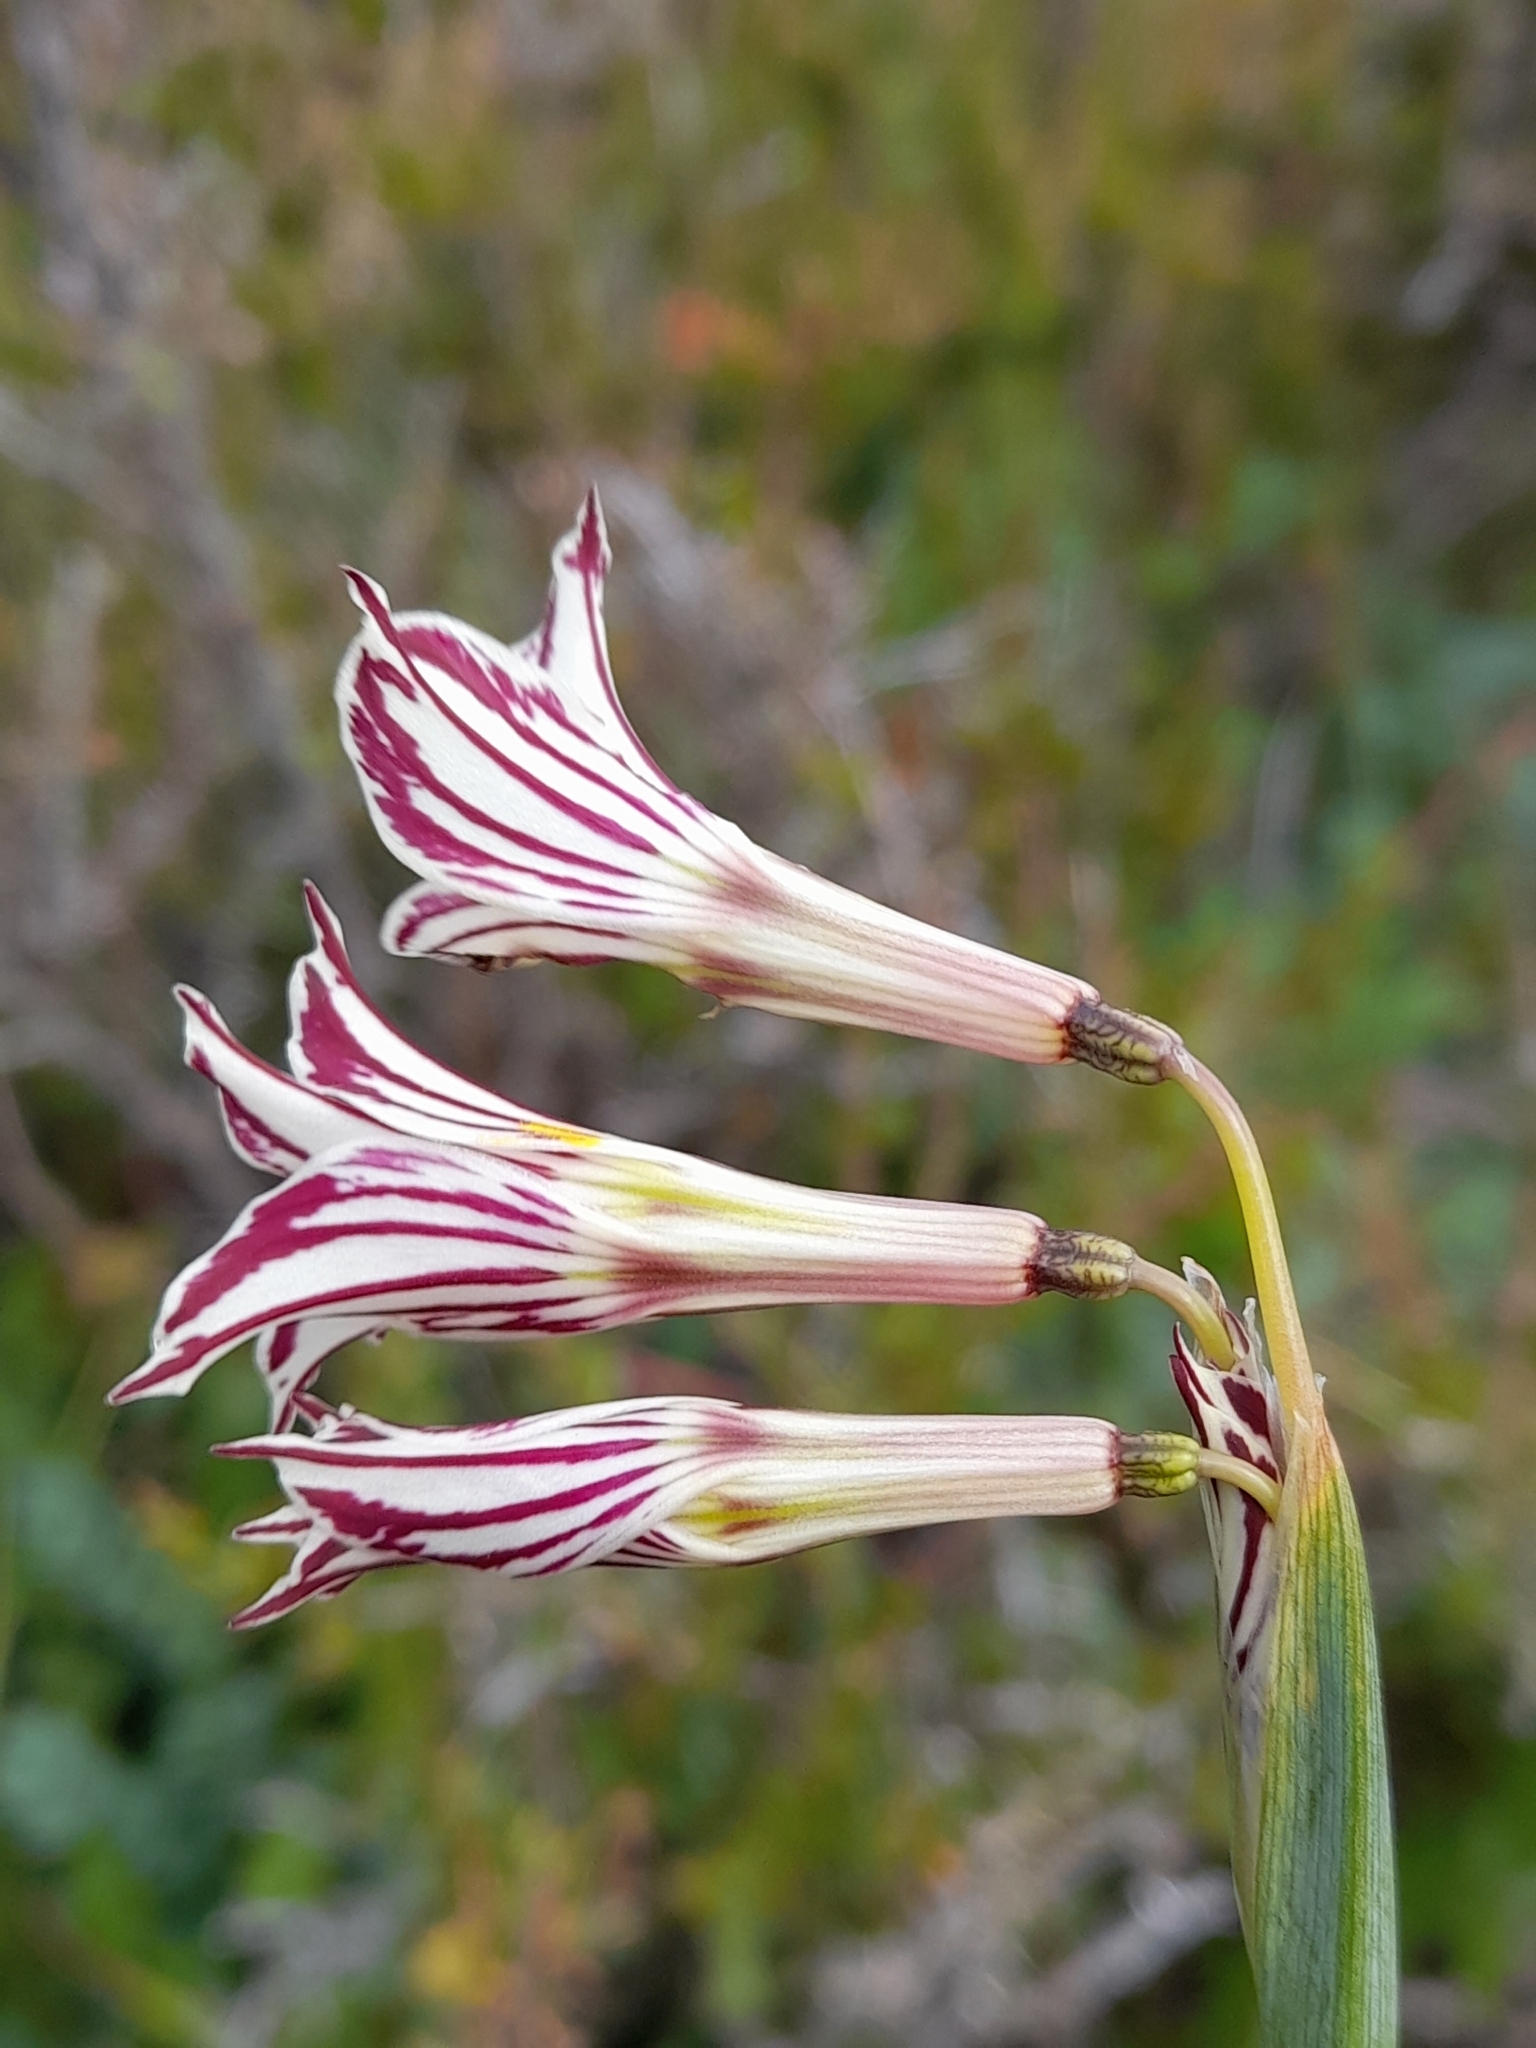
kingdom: Plantae
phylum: Tracheophyta
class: Liliopsida
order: Asparagales
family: Iridaceae
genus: Olsynium
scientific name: Olsynium biflorum
